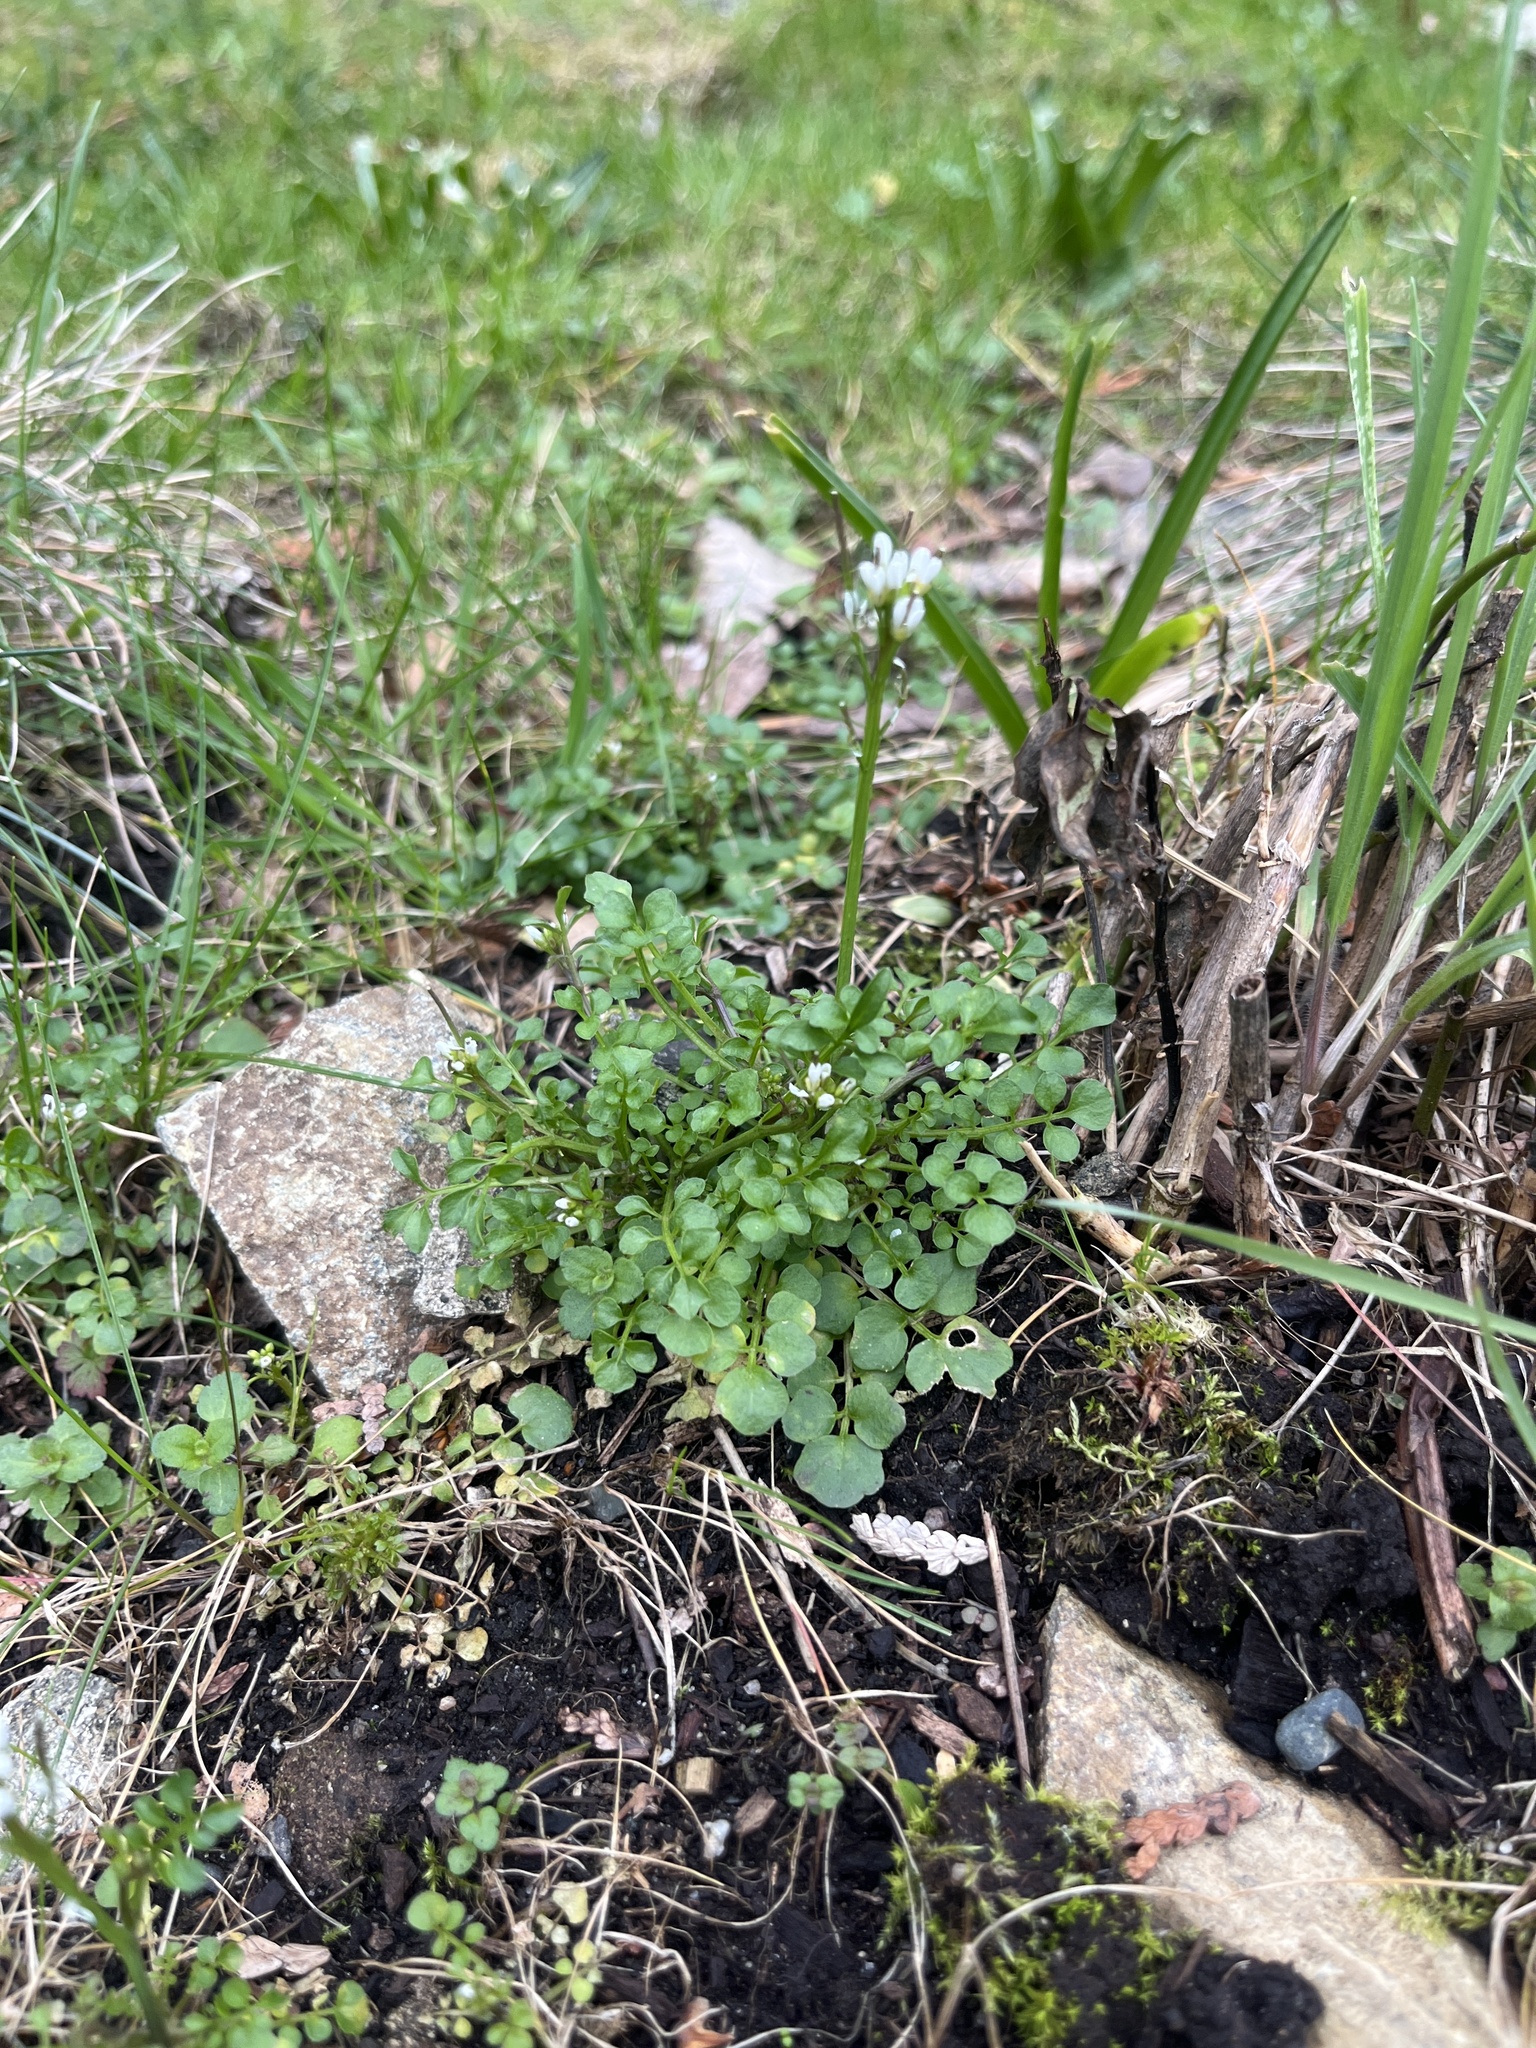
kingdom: Plantae
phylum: Tracheophyta
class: Magnoliopsida
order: Brassicales
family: Brassicaceae
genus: Cardamine
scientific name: Cardamine hirsuta
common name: Hairy bittercress
